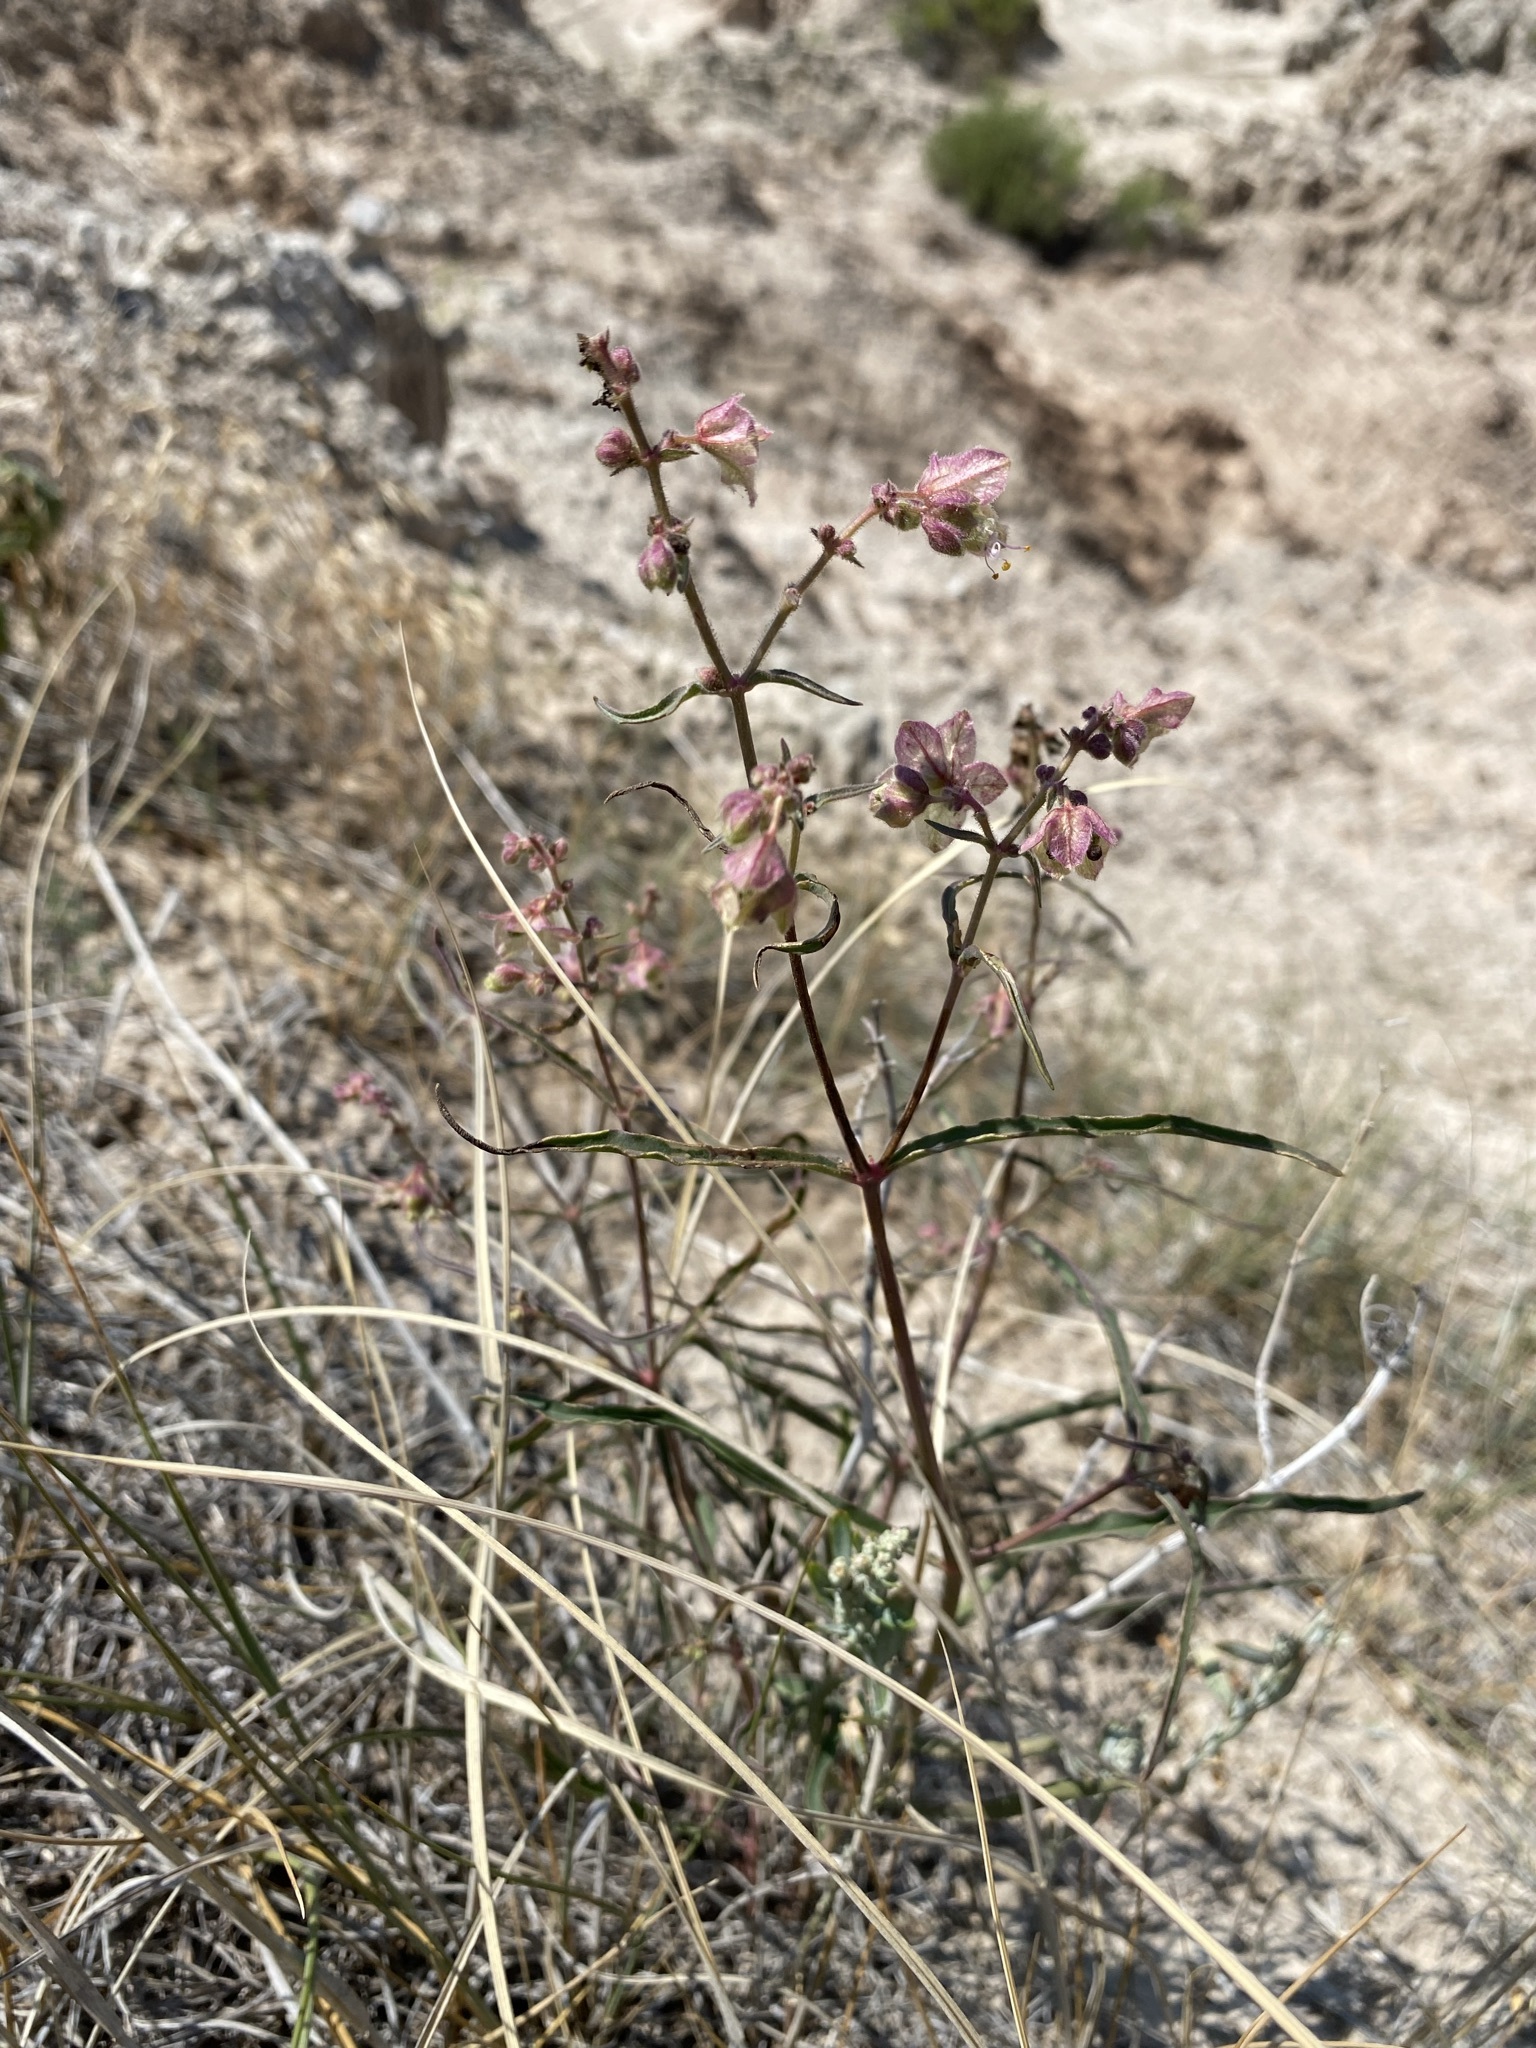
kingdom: Plantae
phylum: Tracheophyta
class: Magnoliopsida
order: Caryophyllales
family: Nyctaginaceae
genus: Mirabilis
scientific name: Mirabilis linearis
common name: Linear-leaved four-o'clock
